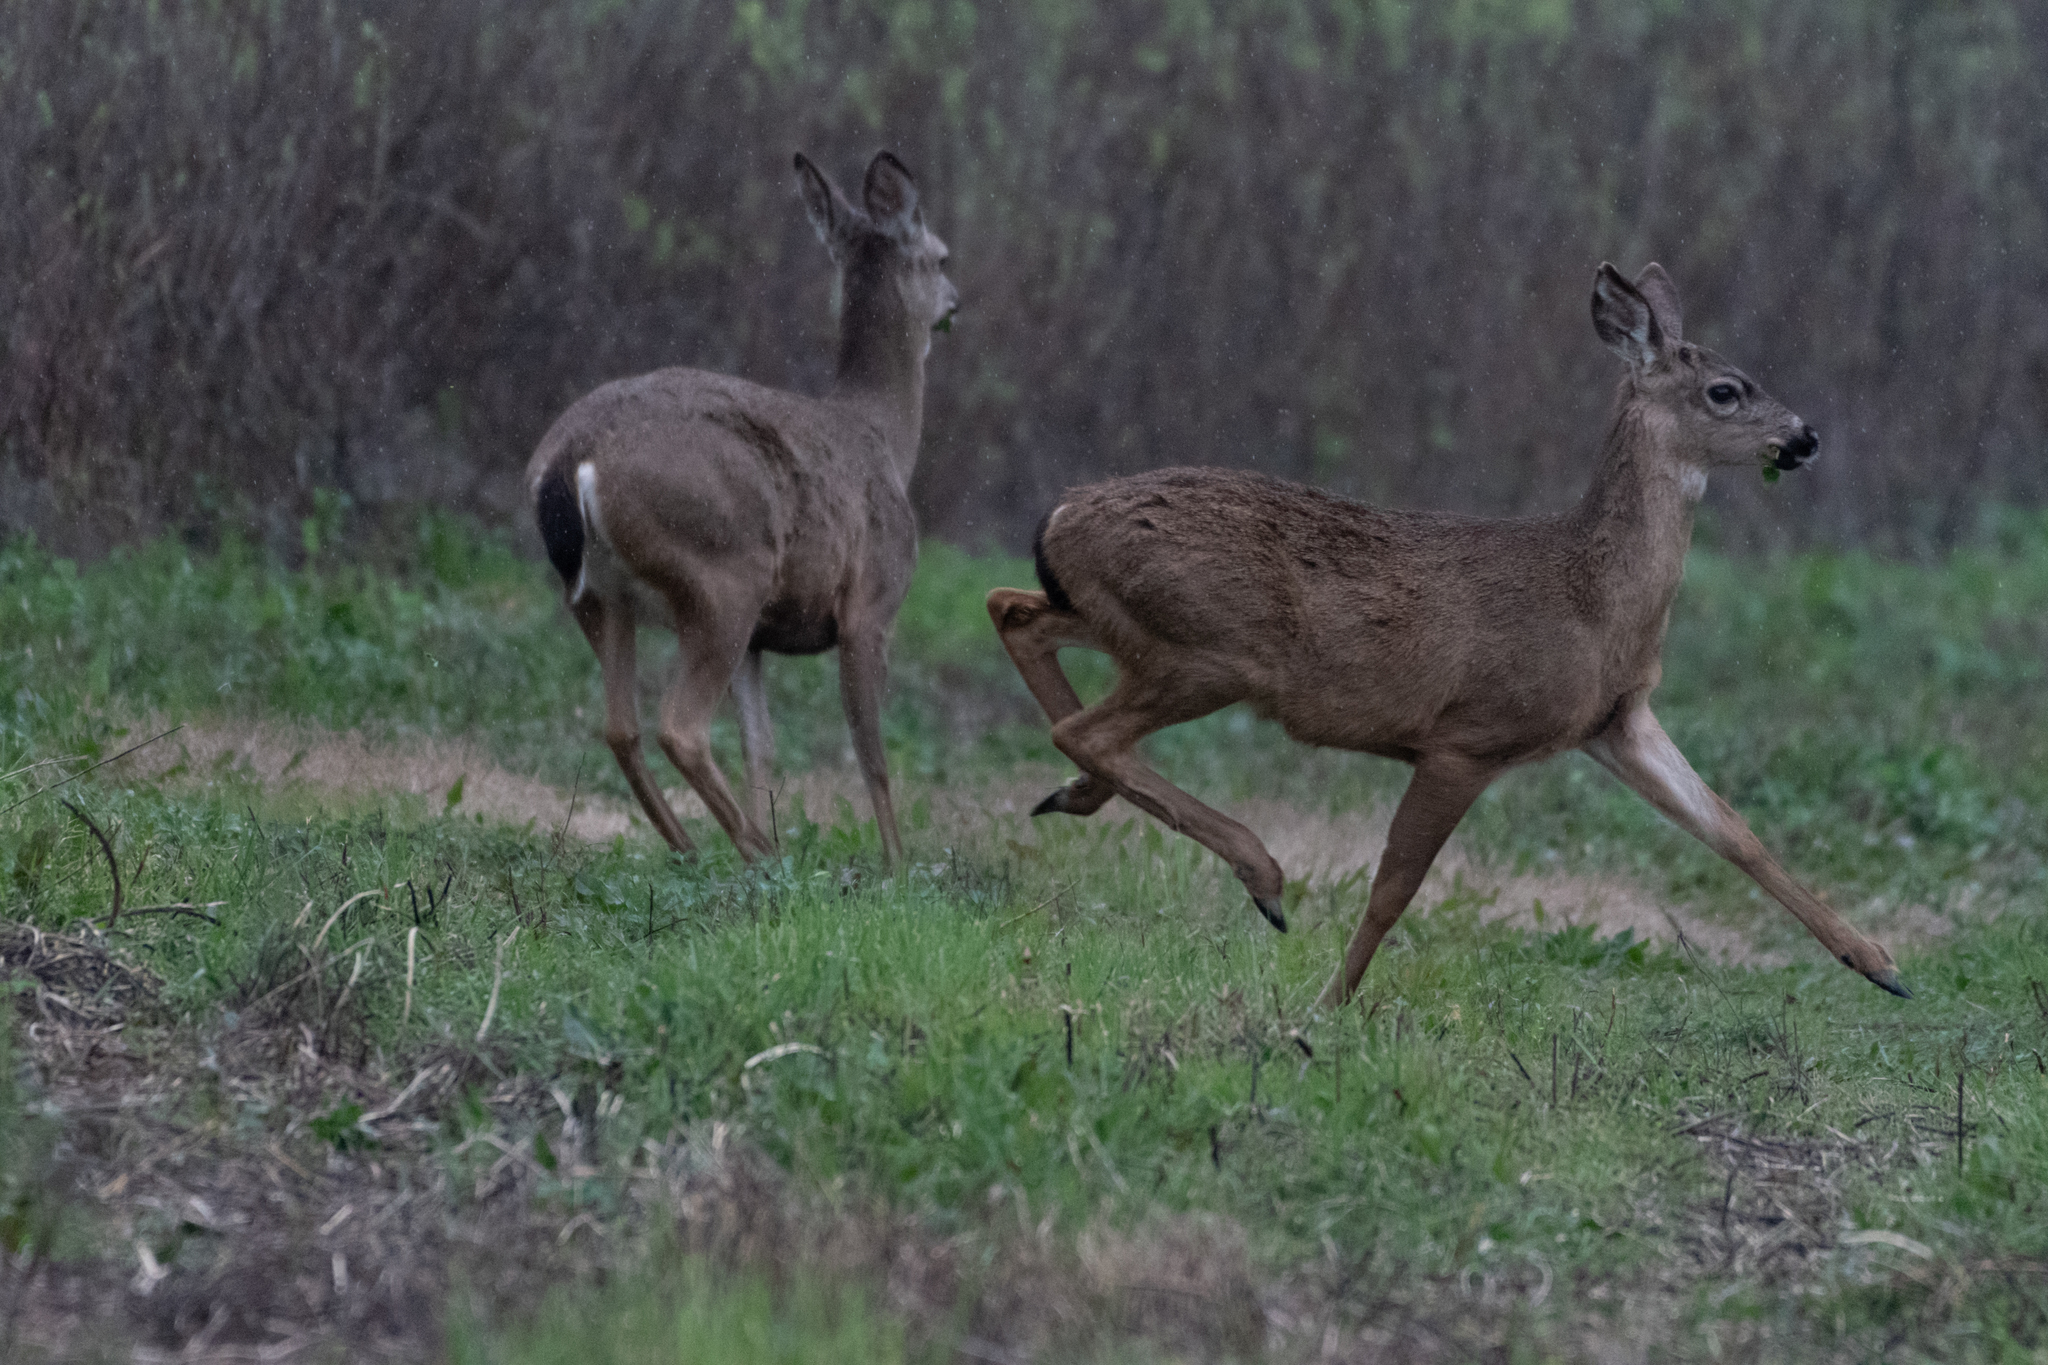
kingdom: Animalia
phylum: Chordata
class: Mammalia
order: Artiodactyla
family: Cervidae
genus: Odocoileus
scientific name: Odocoileus hemionus
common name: Mule deer
